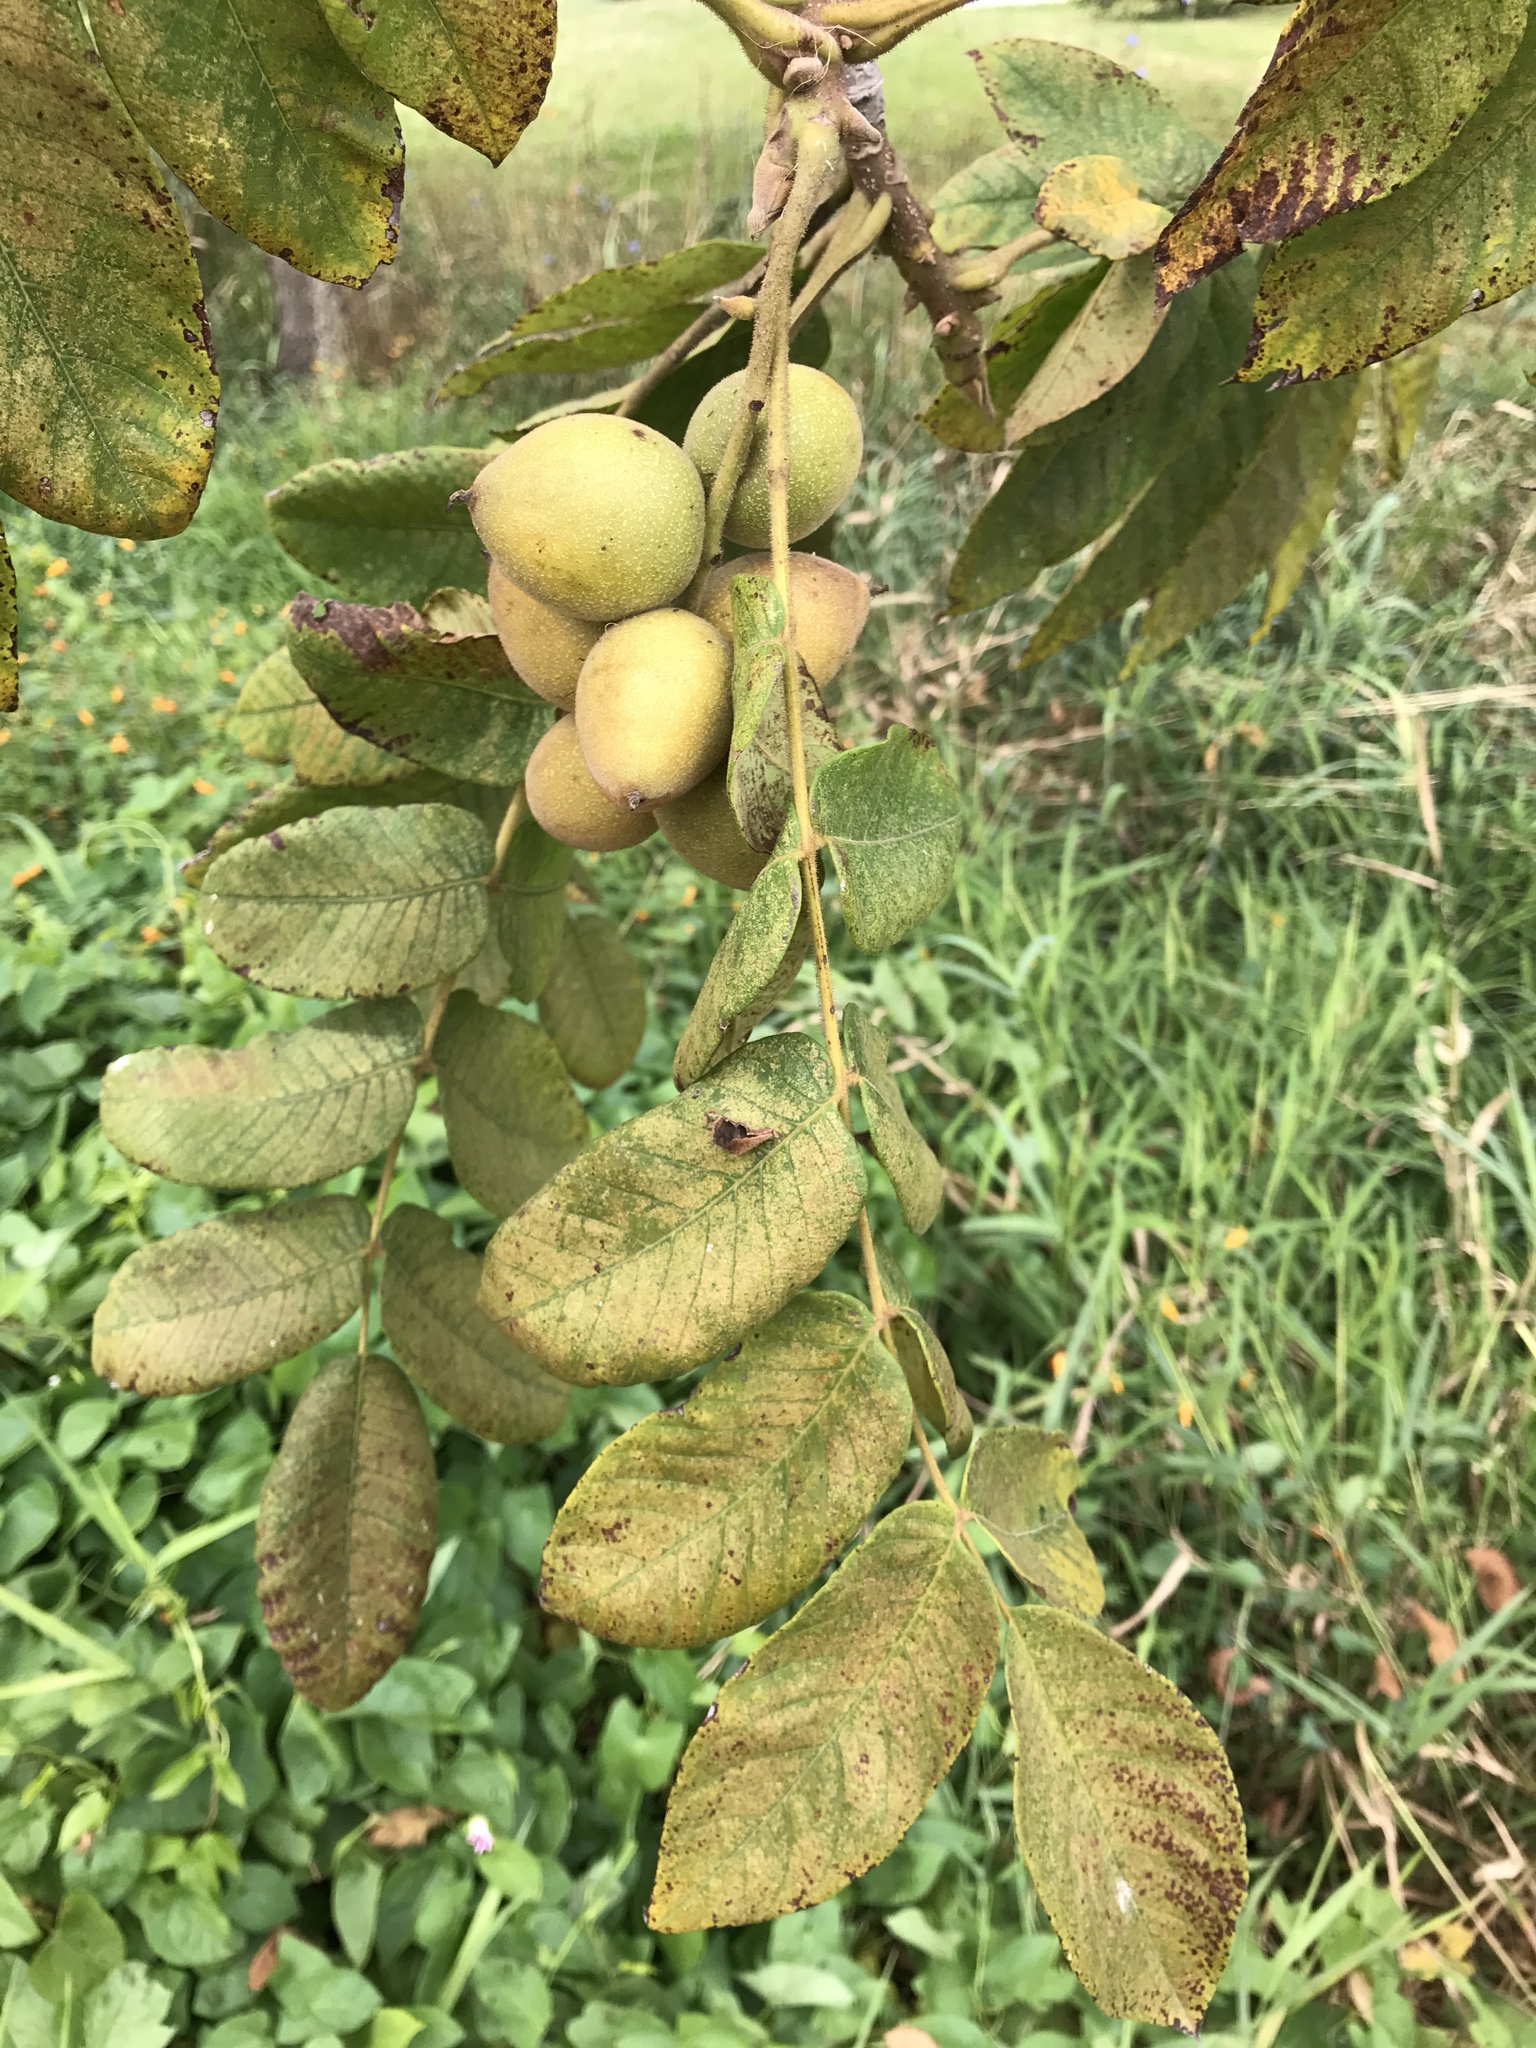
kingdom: Plantae
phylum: Tracheophyta
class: Magnoliopsida
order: Fagales
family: Juglandaceae
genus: Juglans
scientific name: Juglans cinerea
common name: Butternut
